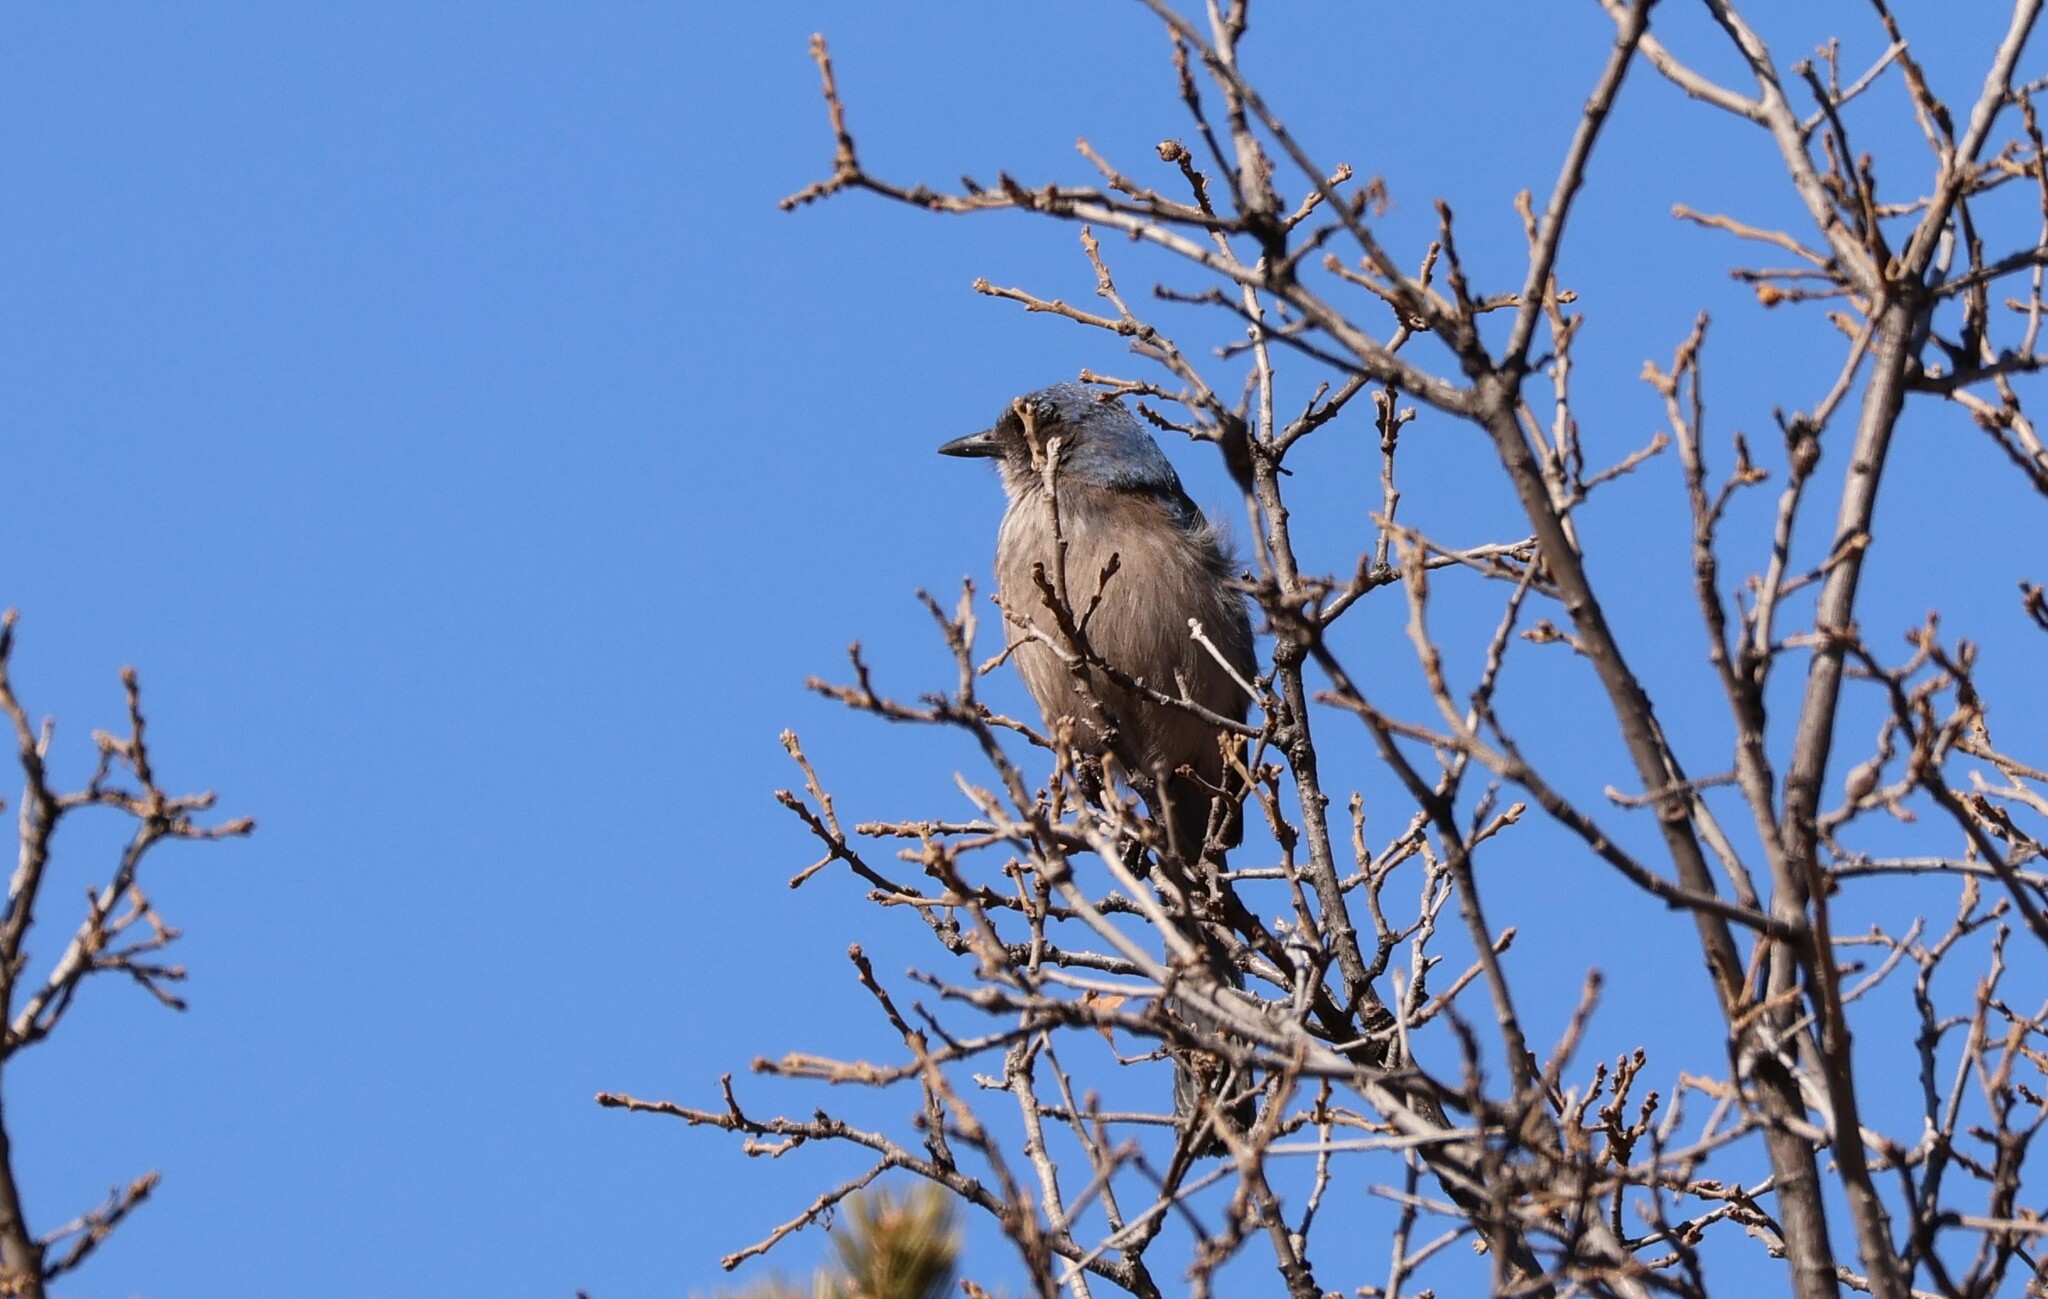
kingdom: Animalia
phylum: Chordata
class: Aves
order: Passeriformes
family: Corvidae
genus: Aphelocoma
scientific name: Aphelocoma woodhouseii
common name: Woodhouse's scrub-jay
